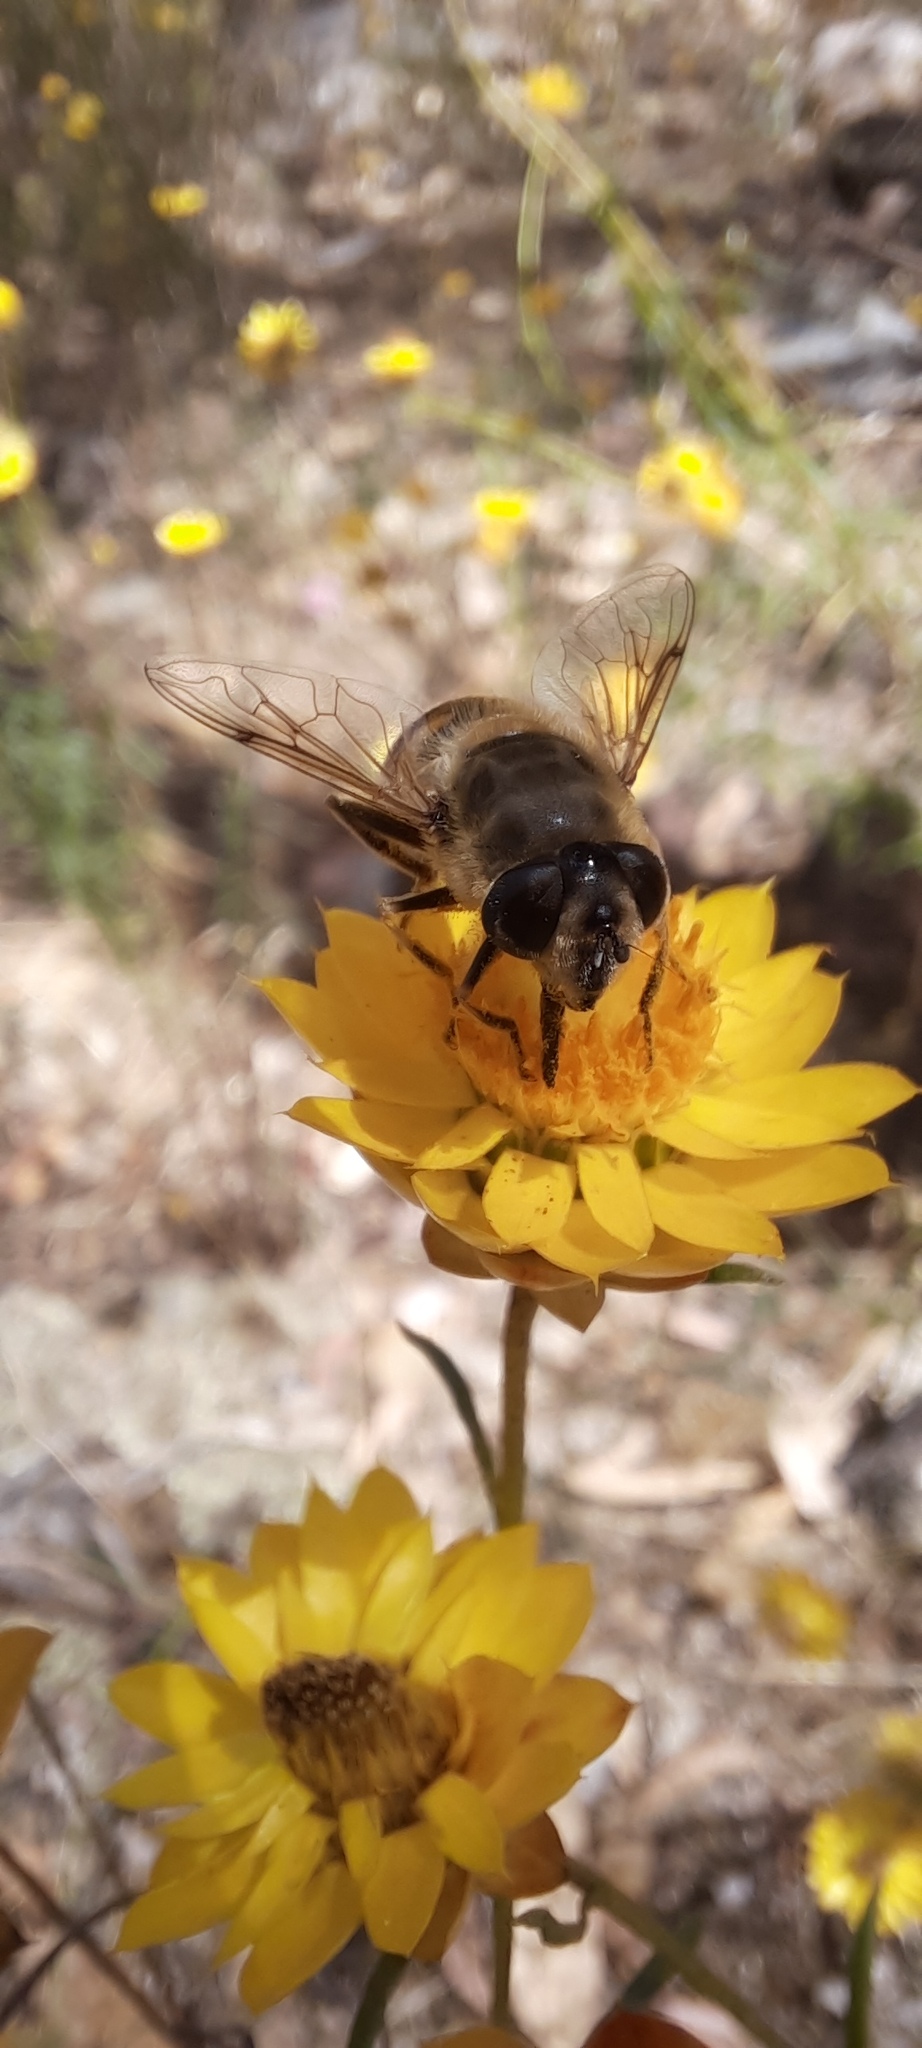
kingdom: Animalia
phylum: Arthropoda
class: Insecta
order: Diptera
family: Syrphidae
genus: Eristalis
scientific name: Eristalis tenax
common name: Drone fly
